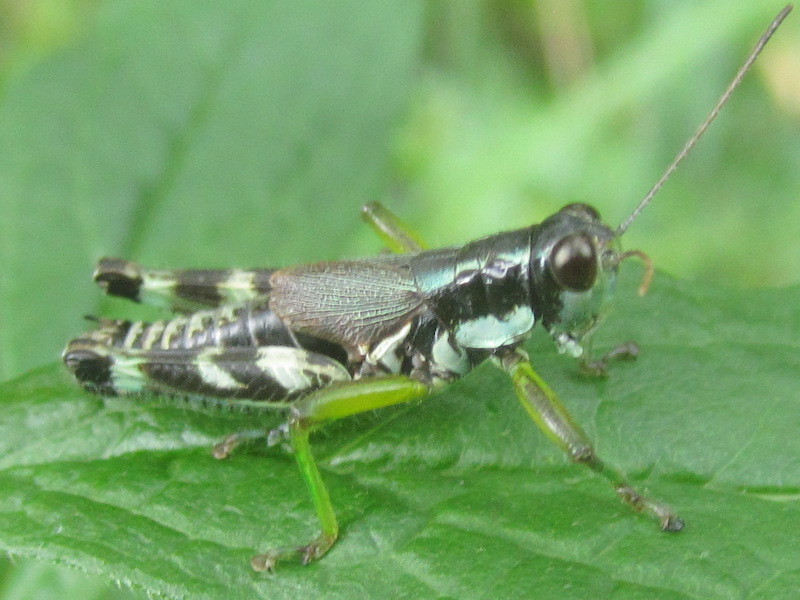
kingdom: Animalia
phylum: Arthropoda
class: Insecta
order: Orthoptera
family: Acrididae
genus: Melanoplus
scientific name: Melanoplus viridipes
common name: Green-legged locust
